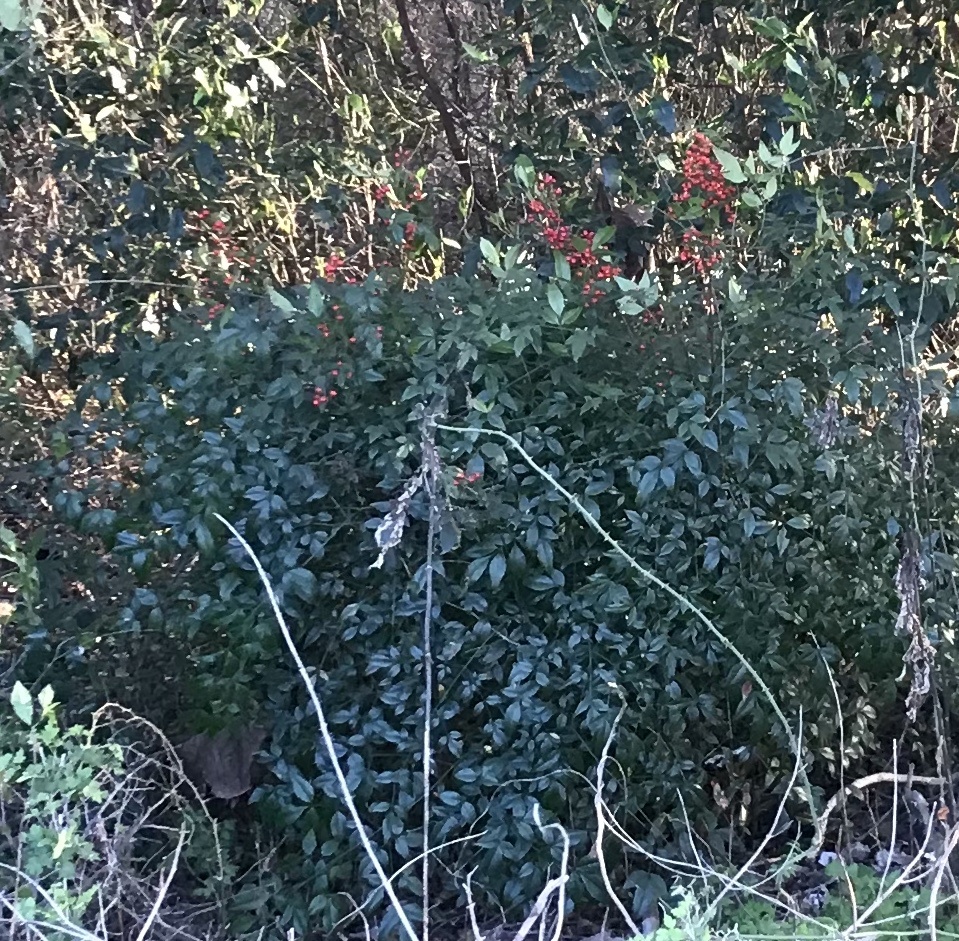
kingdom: Plantae
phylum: Tracheophyta
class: Magnoliopsida
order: Ranunculales
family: Berberidaceae
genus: Nandina
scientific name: Nandina domestica
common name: Sacred bamboo
